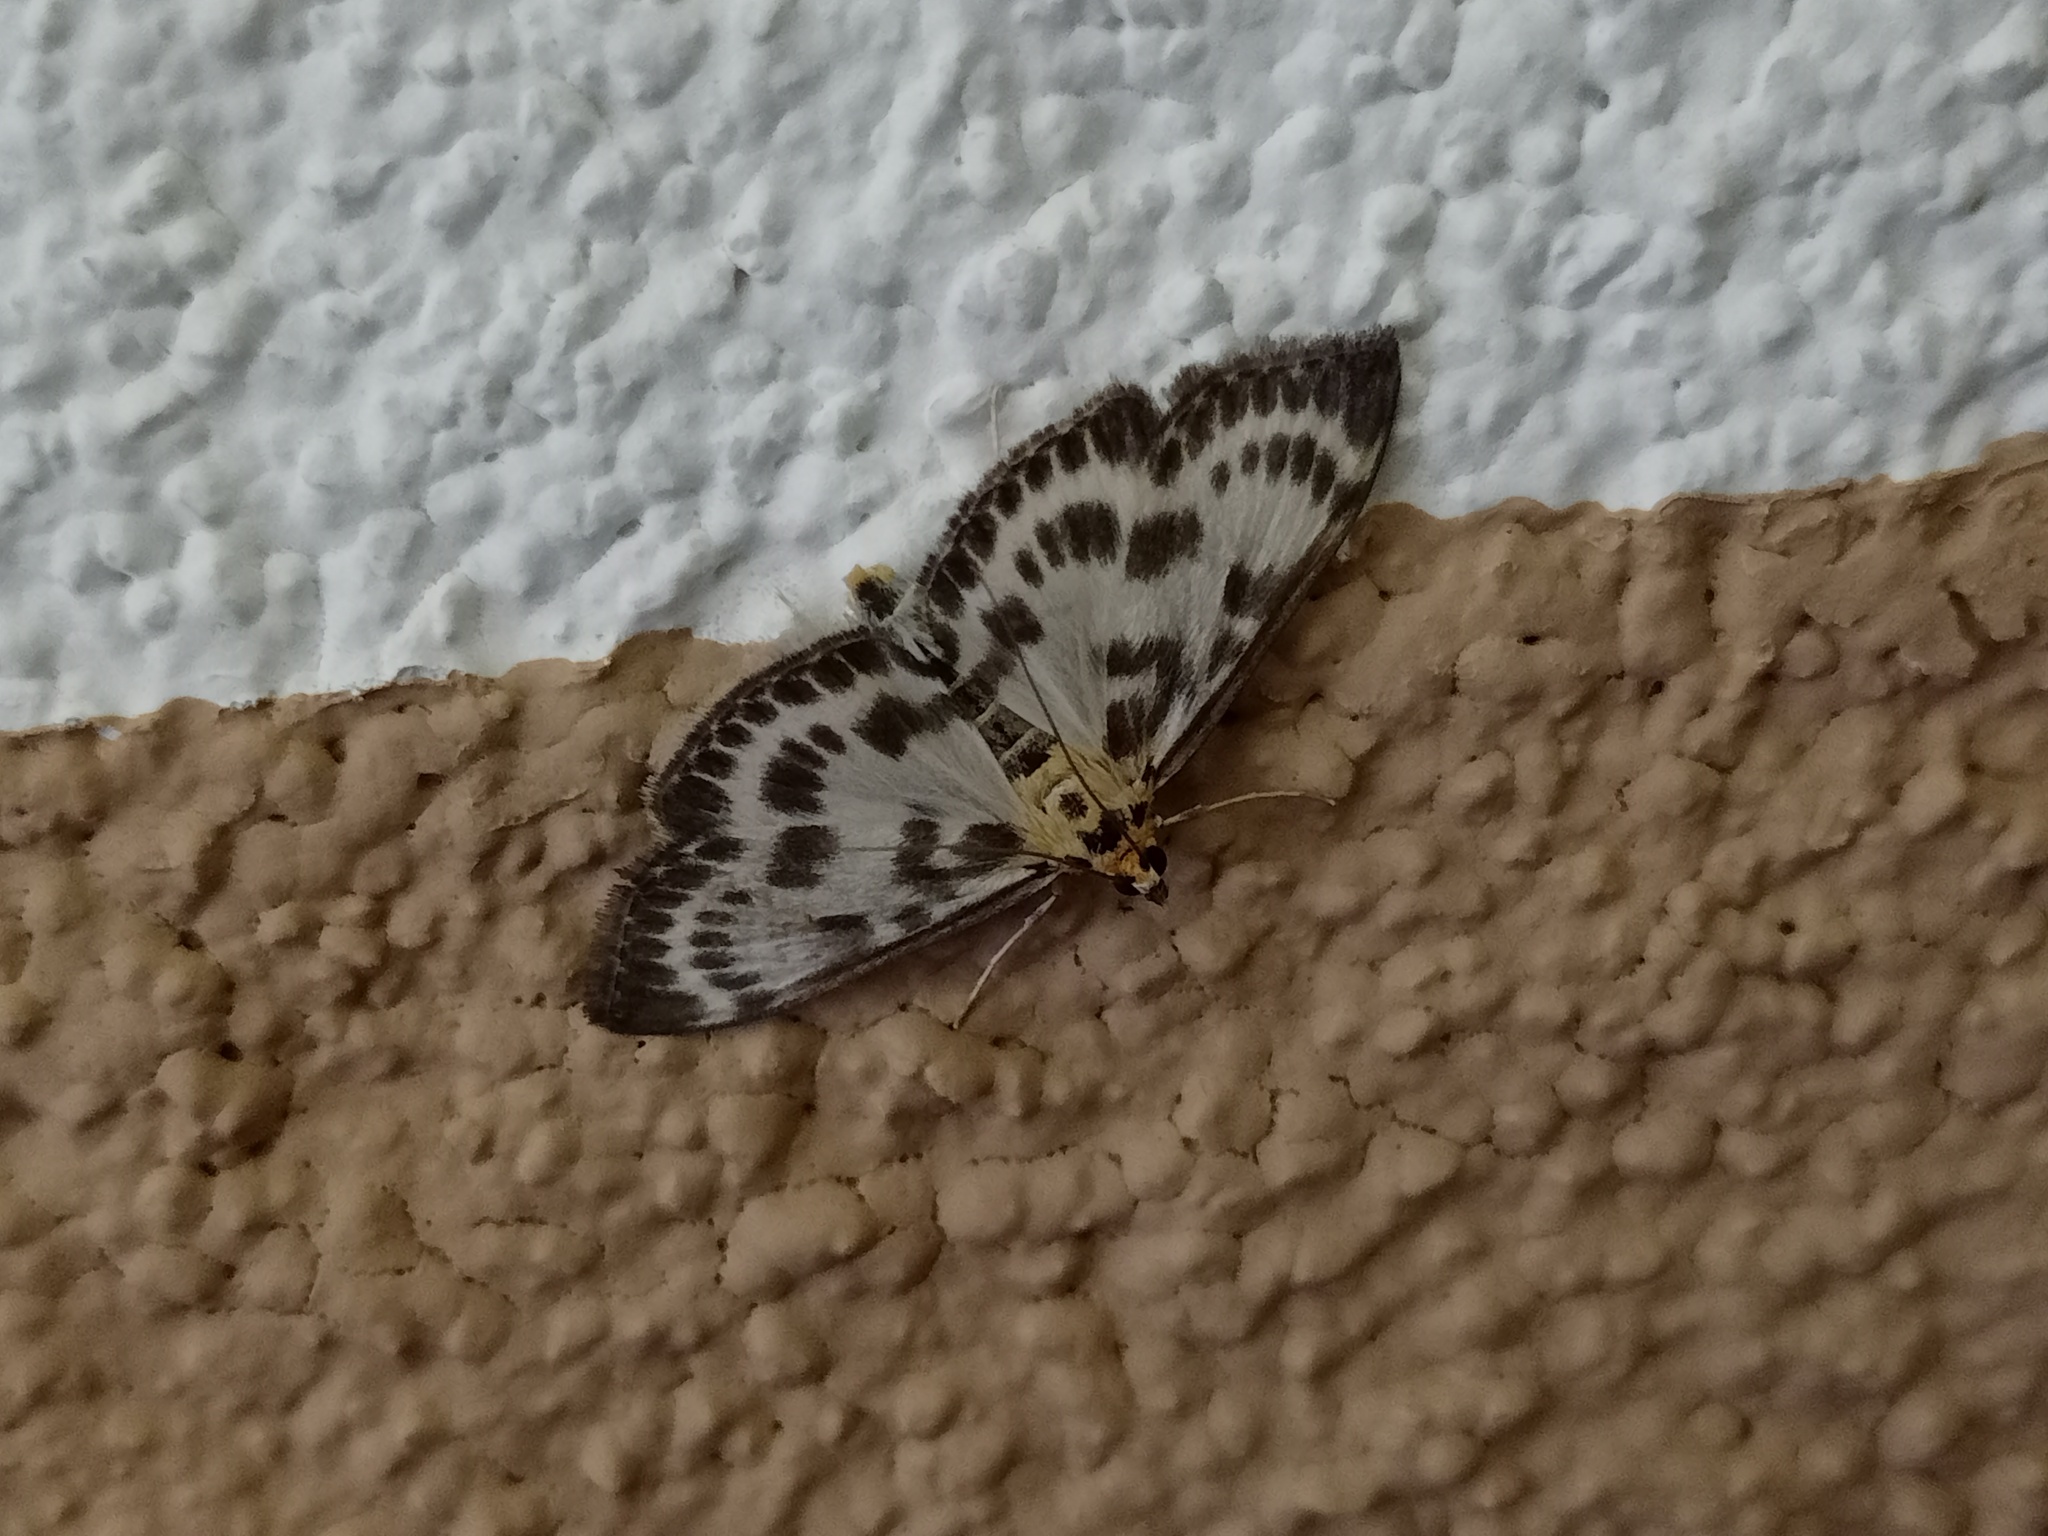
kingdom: Animalia
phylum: Arthropoda
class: Insecta
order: Lepidoptera
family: Crambidae
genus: Anania
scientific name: Anania hortulata
